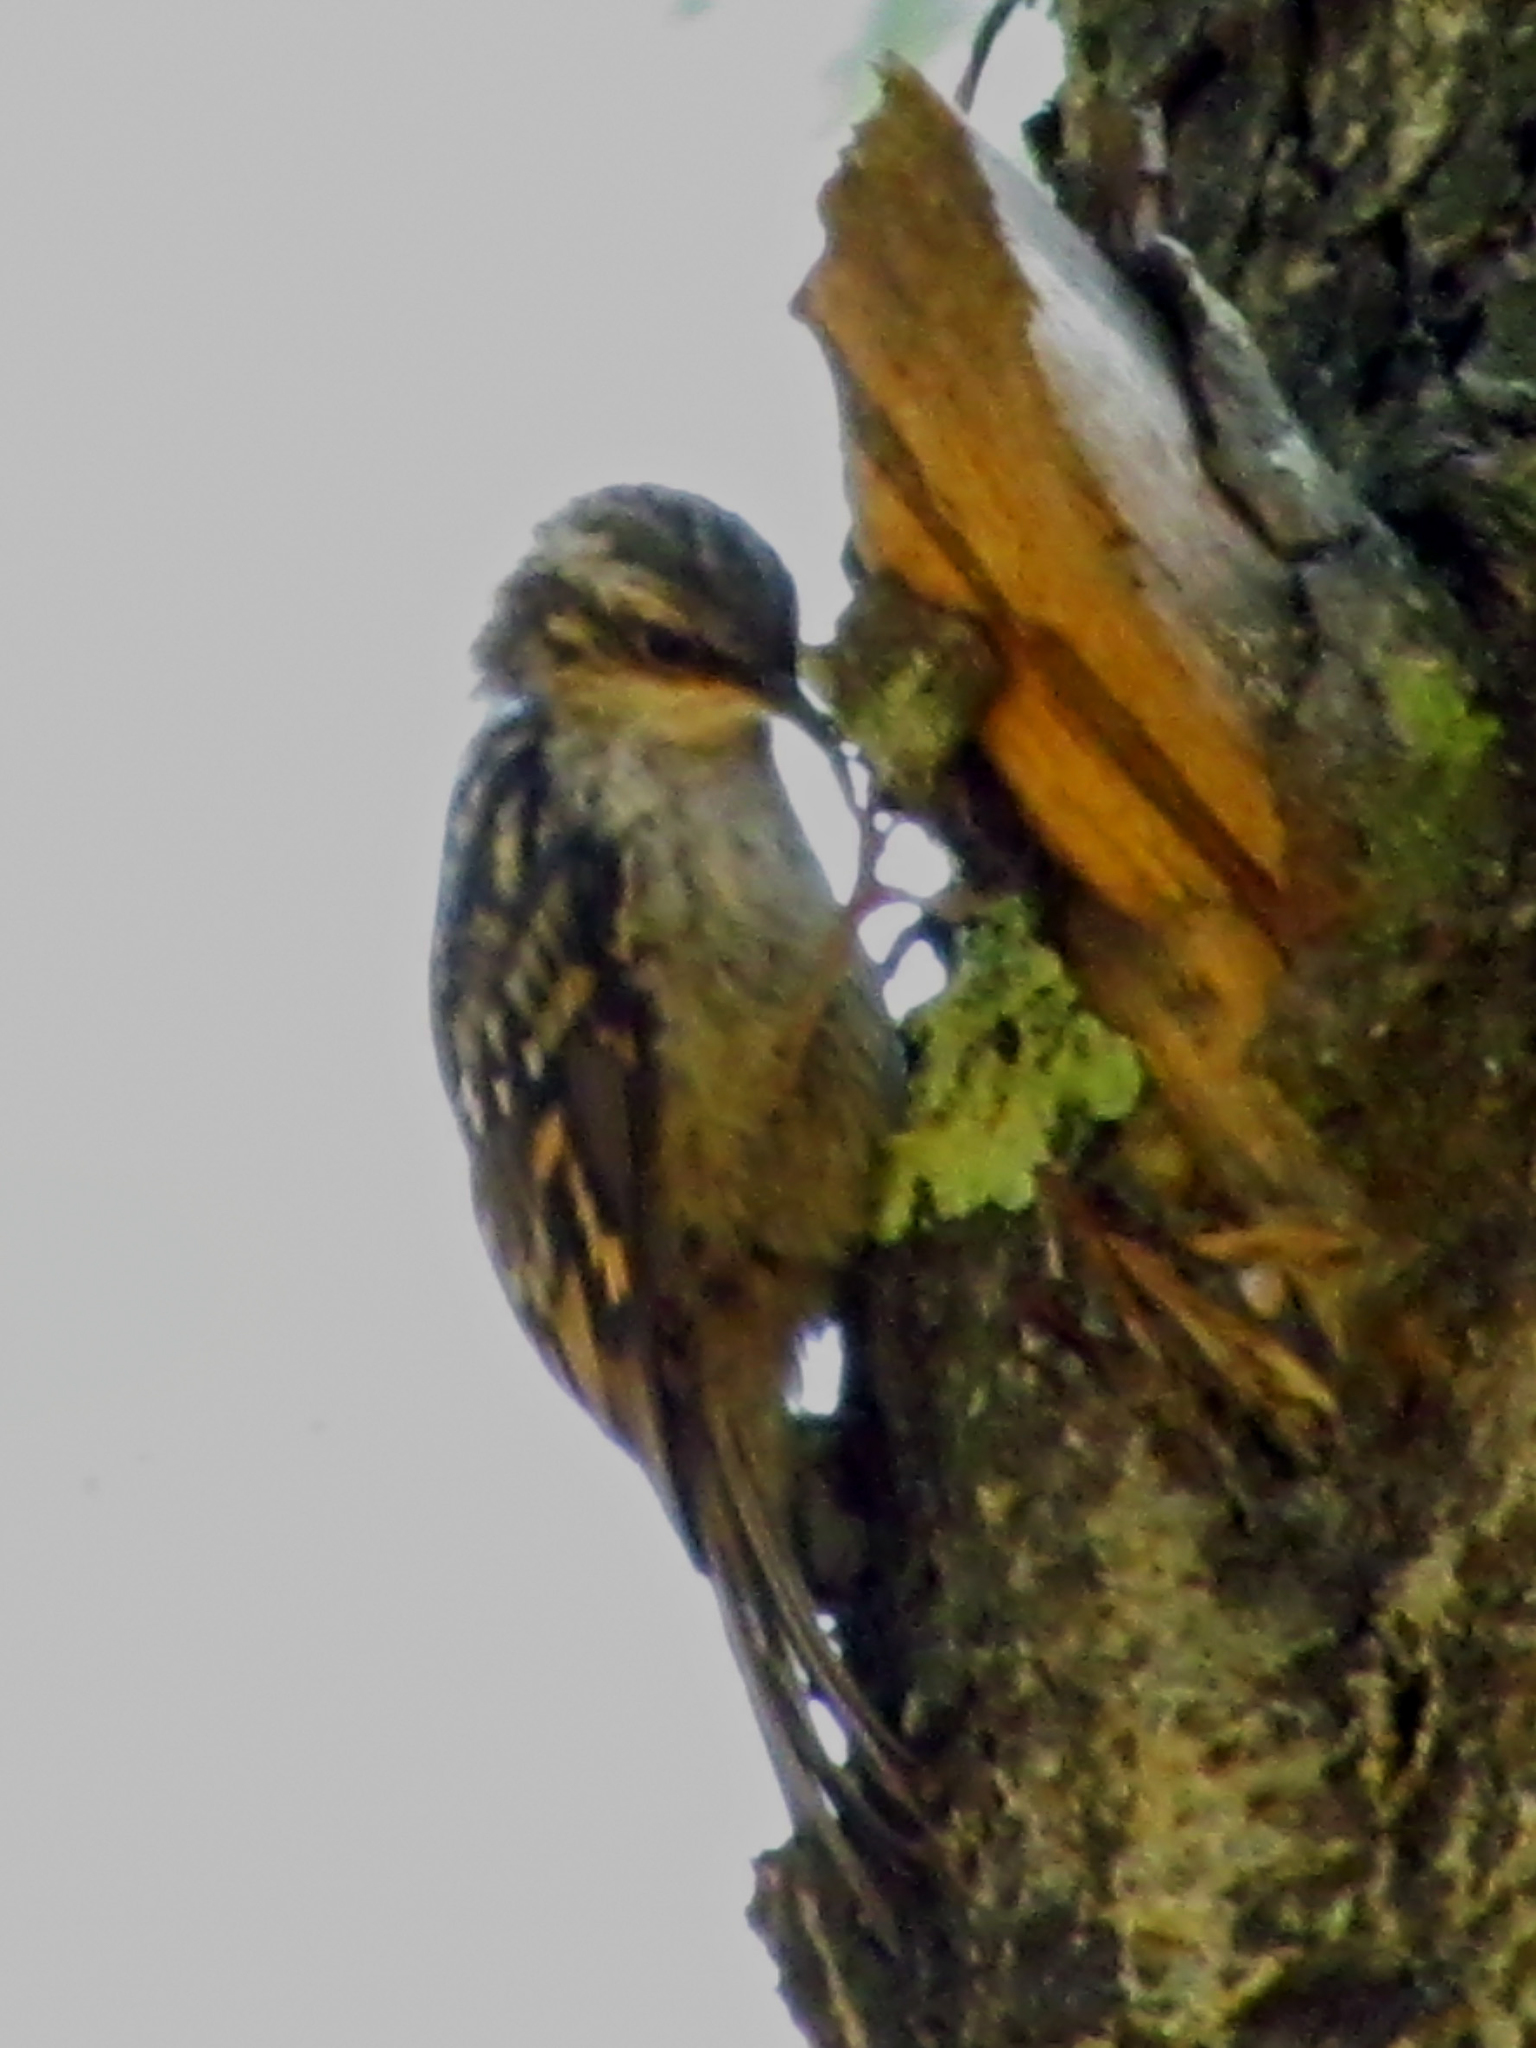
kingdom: Animalia
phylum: Chordata
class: Aves
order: Passeriformes
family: Certhiidae
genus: Certhia
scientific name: Certhia brachydactyla
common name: Short-toed treecreeper
